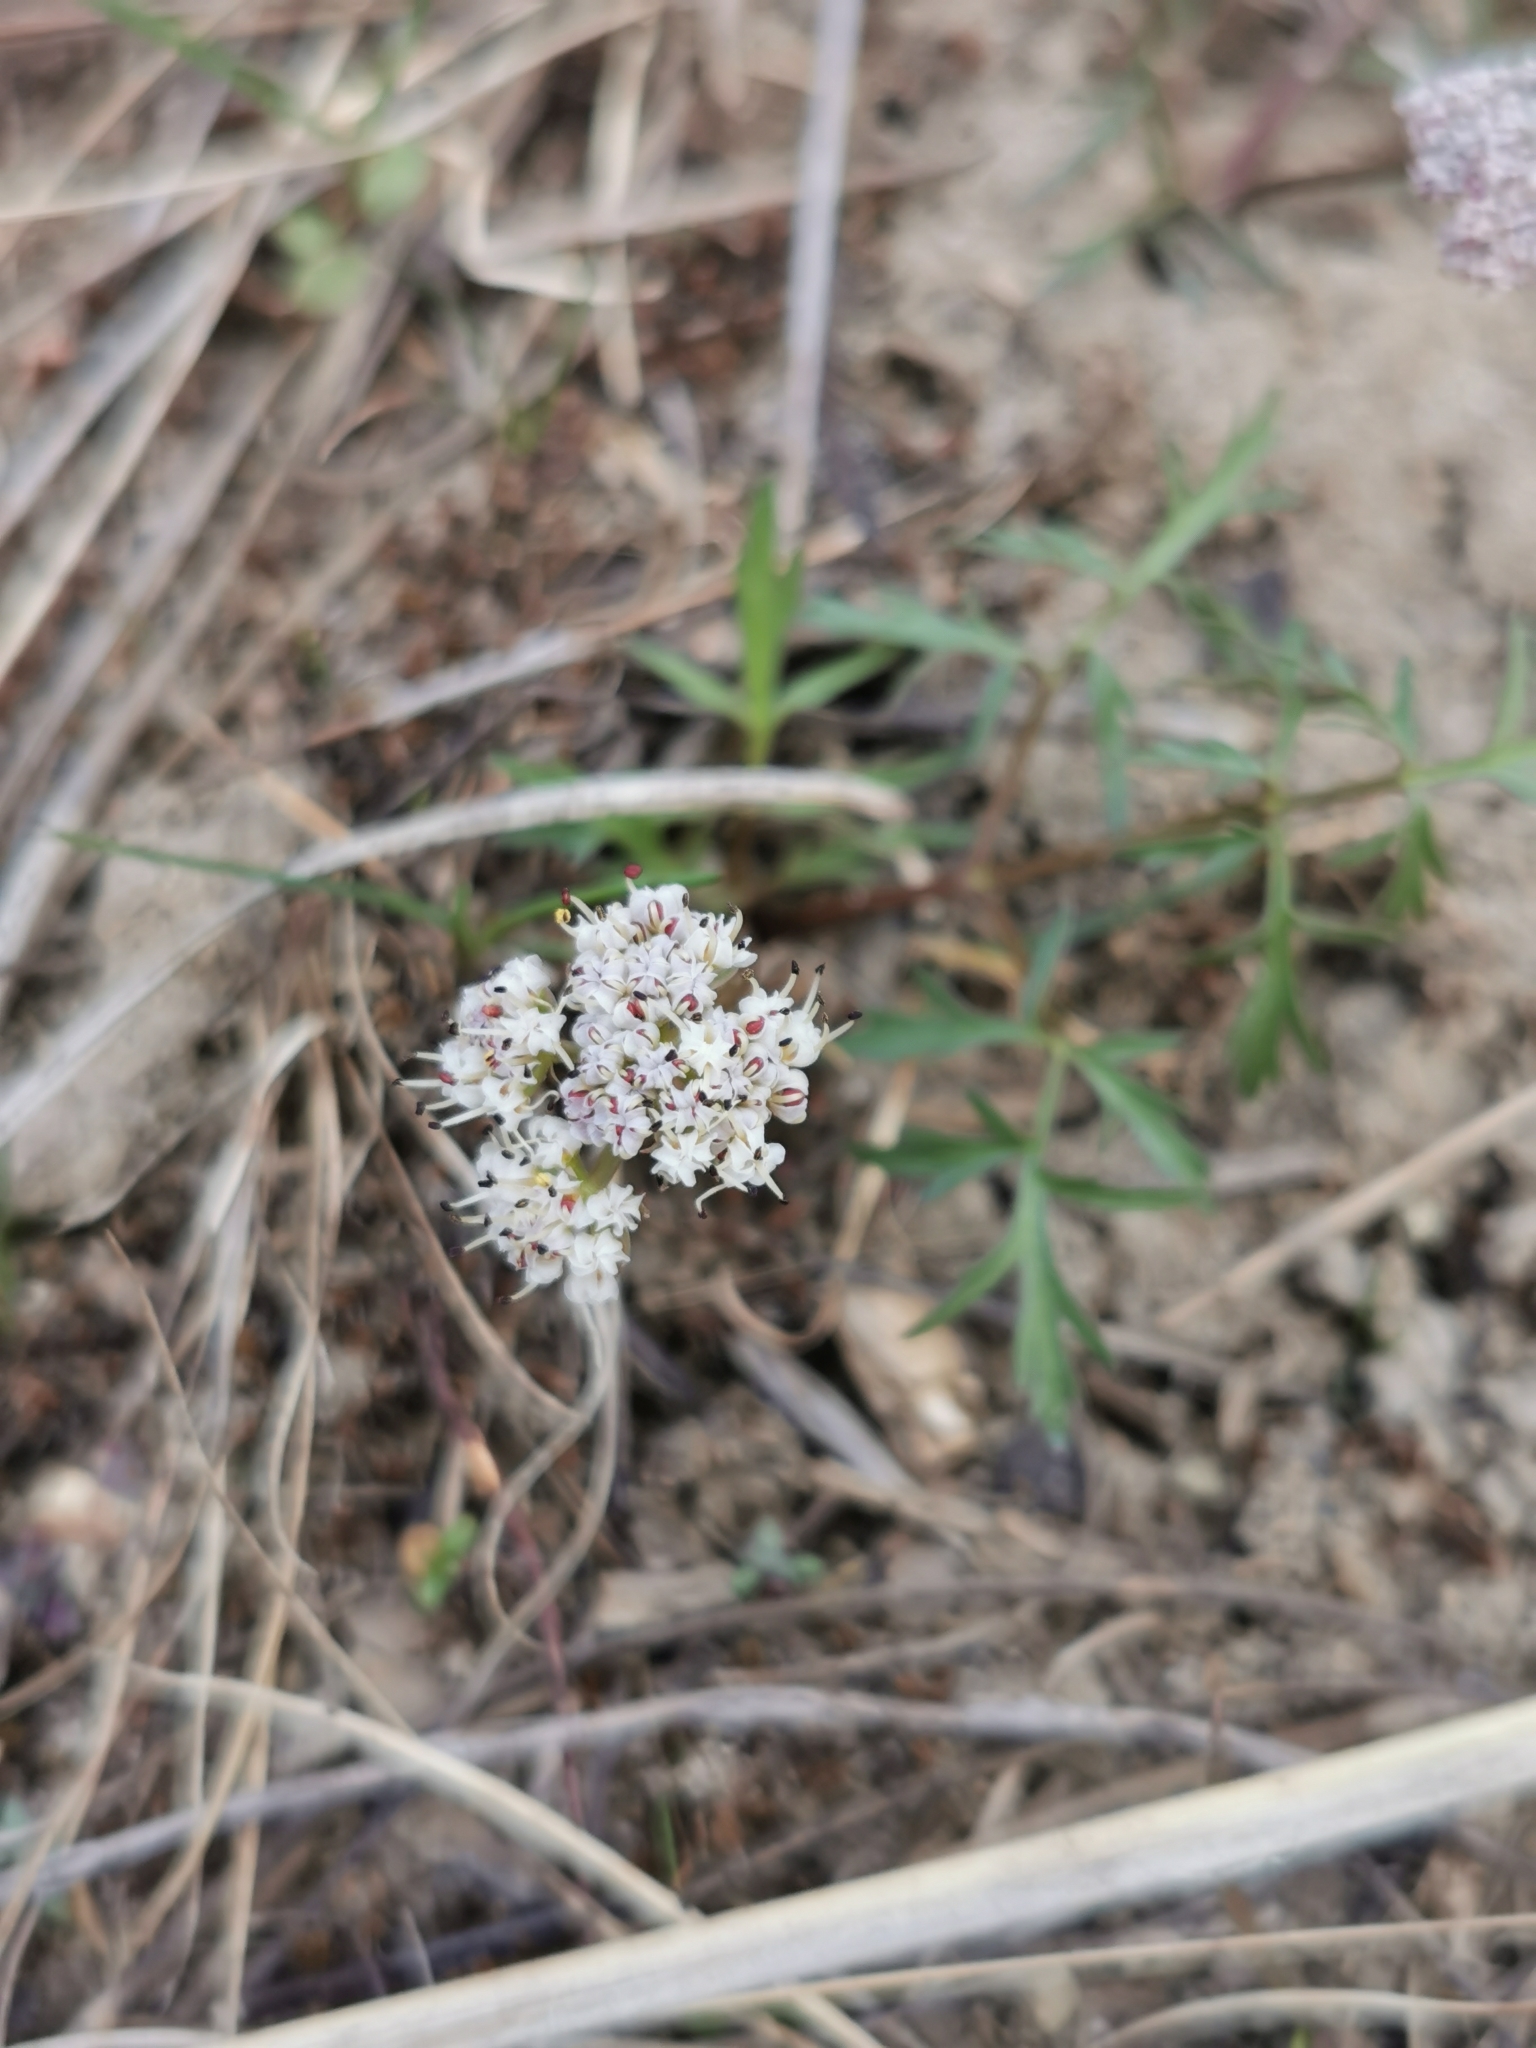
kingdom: Plantae
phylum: Tracheophyta
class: Magnoliopsida
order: Apiales
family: Apiaceae
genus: Lomatium
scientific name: Lomatium geyeri
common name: Geyer's biscuitroot
